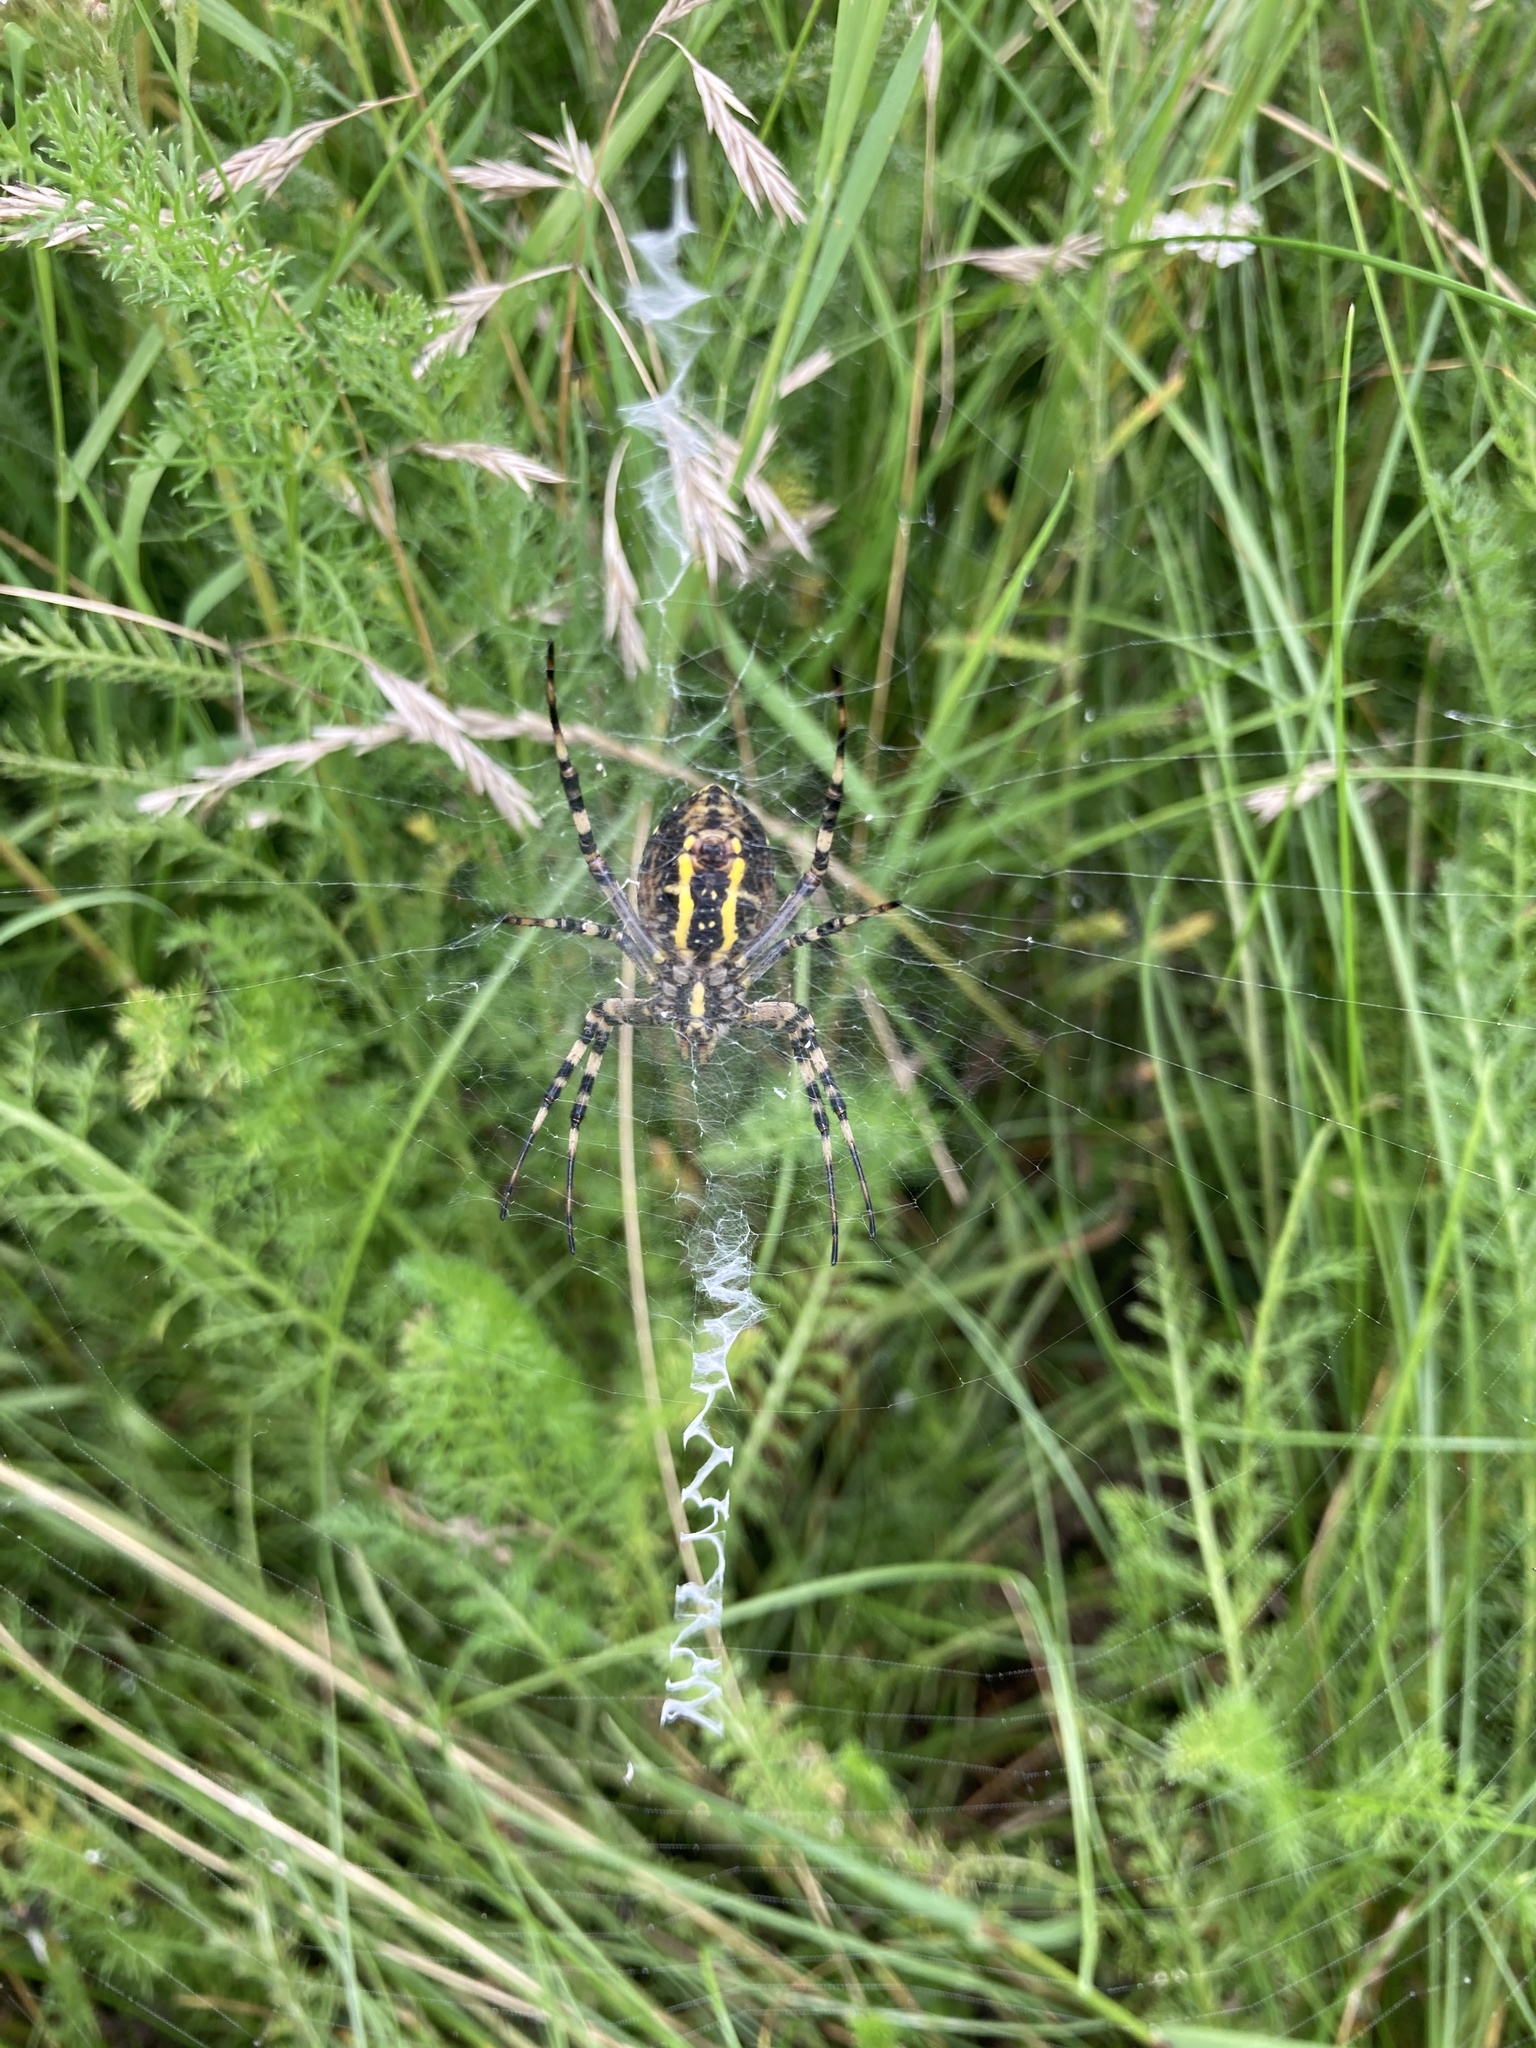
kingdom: Animalia
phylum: Arthropoda
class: Arachnida
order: Araneae
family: Araneidae
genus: Argiope
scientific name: Argiope bruennichi
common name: Wasp spider
